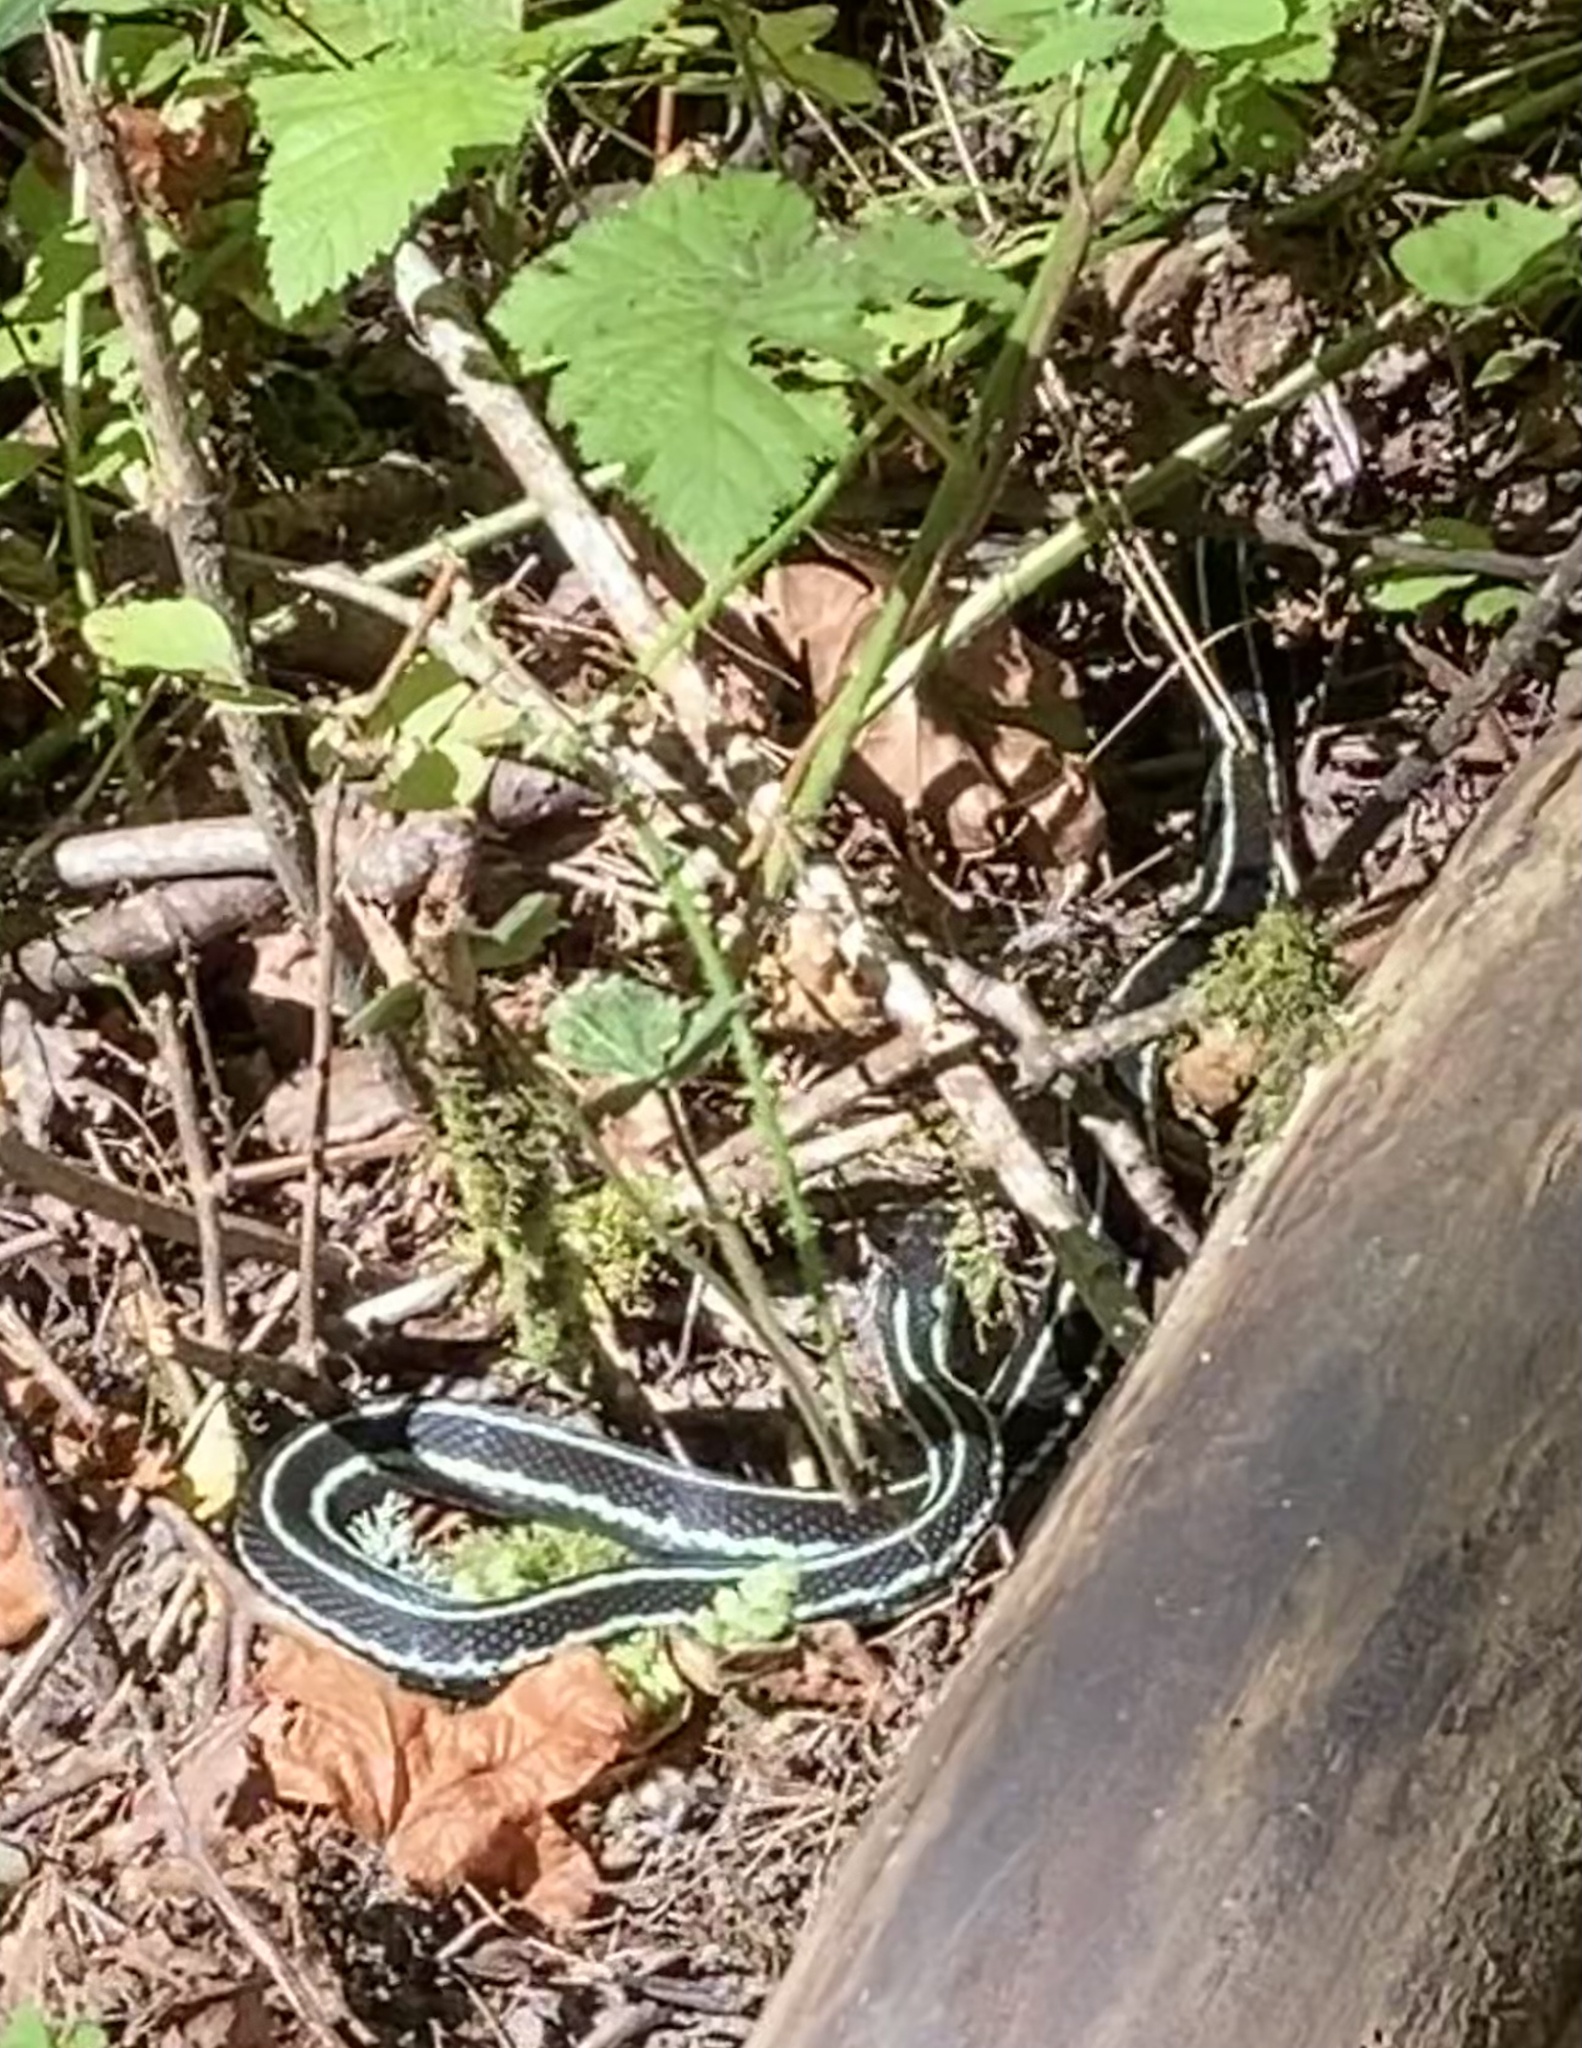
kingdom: Animalia
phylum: Chordata
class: Squamata
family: Colubridae
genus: Thamnophis
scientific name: Thamnophis sirtalis
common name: Common garter snake
